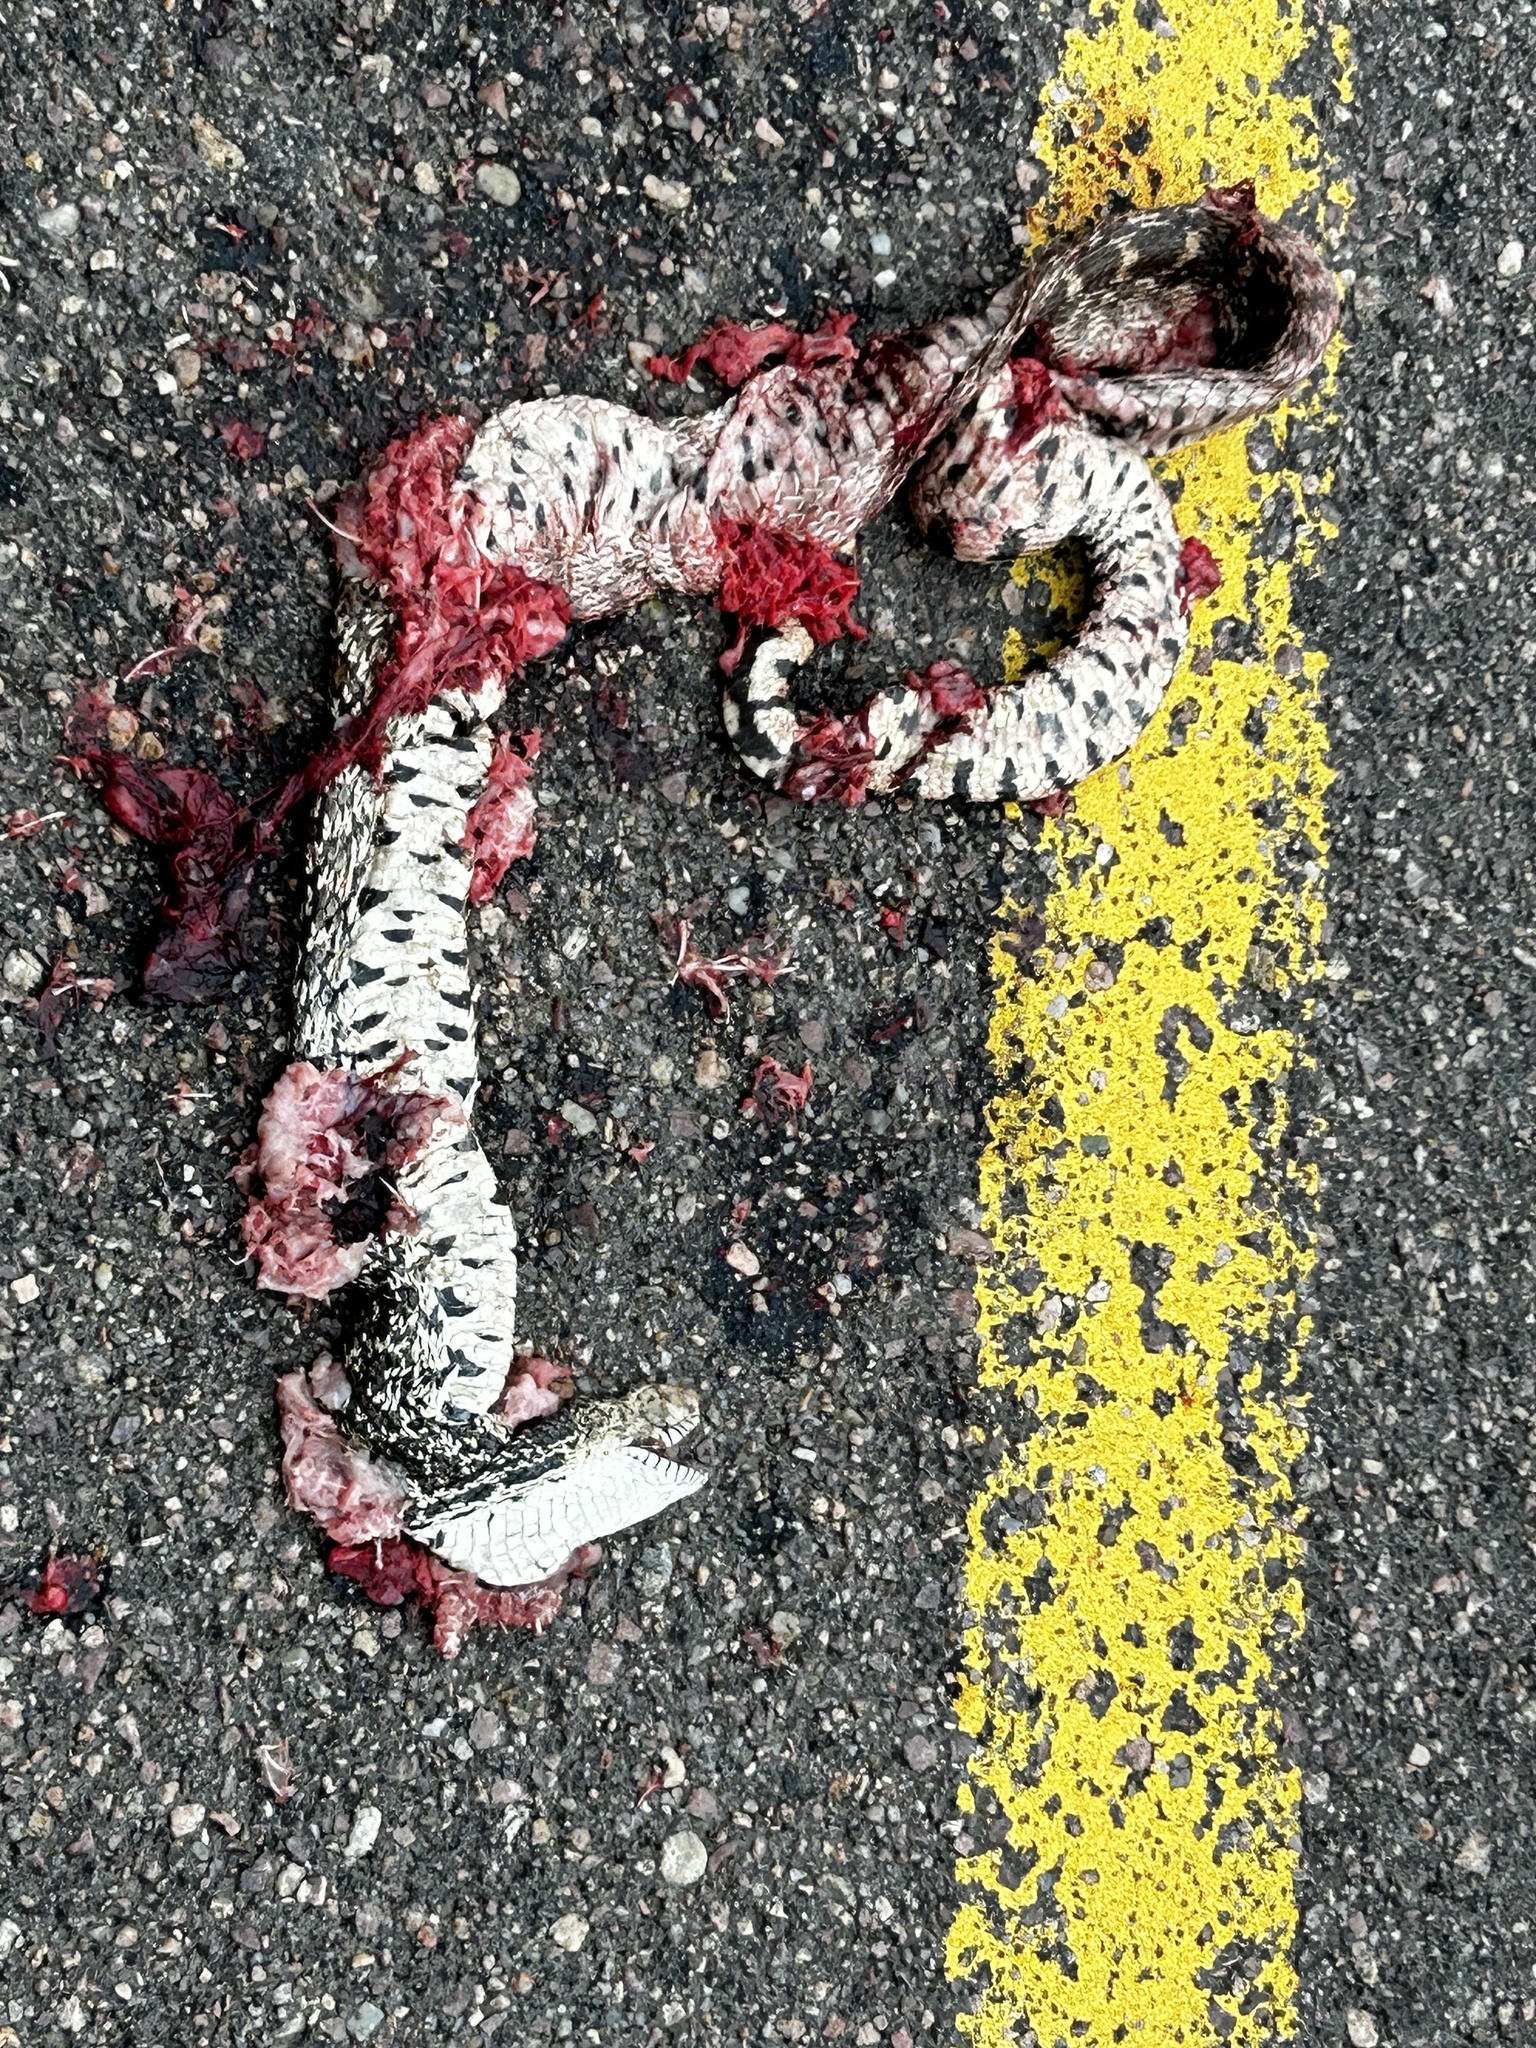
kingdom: Animalia
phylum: Chordata
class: Squamata
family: Colubridae
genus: Pituophis
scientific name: Pituophis catenifer
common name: Gopher snake
